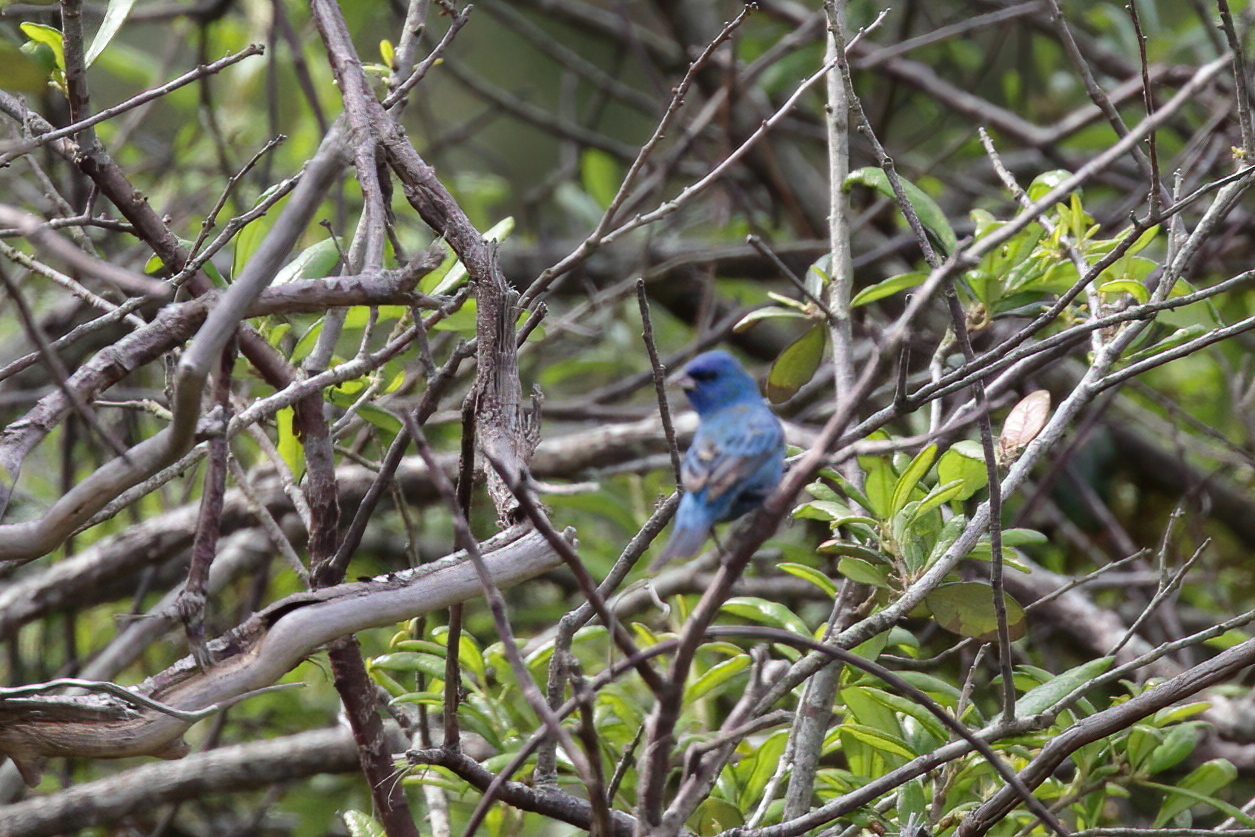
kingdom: Animalia
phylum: Chordata
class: Aves
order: Passeriformes
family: Cardinalidae
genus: Passerina
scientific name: Passerina cyanea
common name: Indigo bunting
